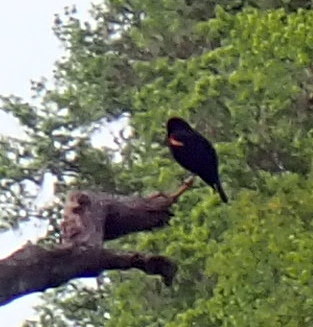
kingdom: Animalia
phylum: Chordata
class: Aves
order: Passeriformes
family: Icteridae
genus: Agelaius
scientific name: Agelaius phoeniceus
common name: Red-winged blackbird
